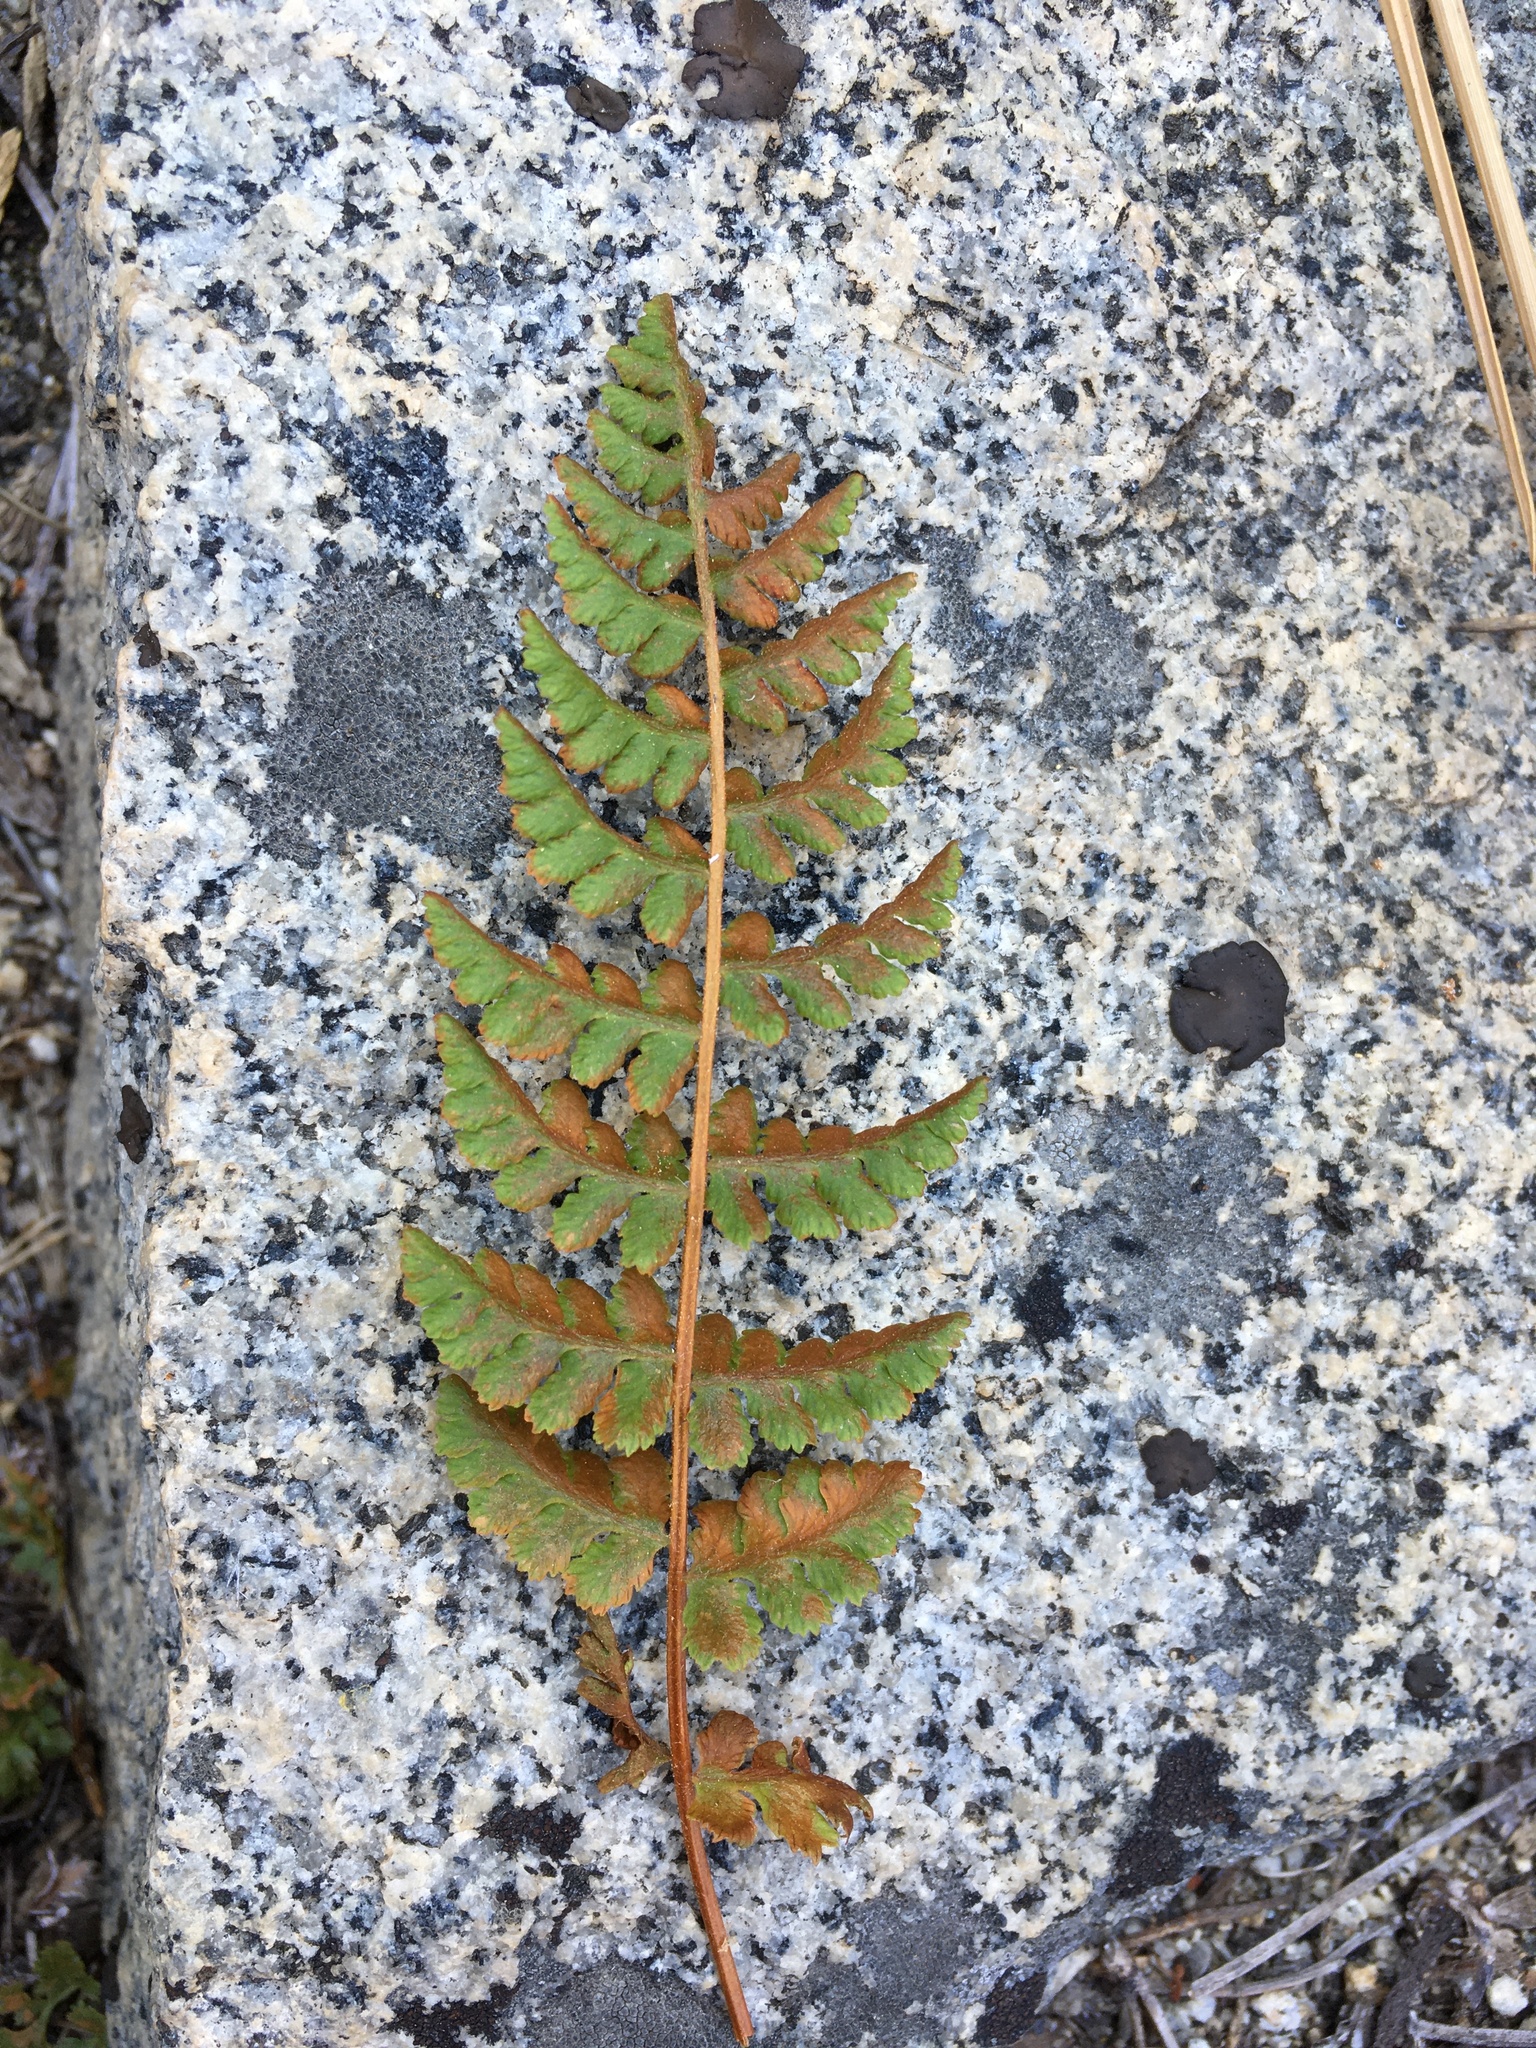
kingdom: Plantae
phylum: Tracheophyta
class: Polypodiopsida
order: Polypodiales
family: Woodsiaceae
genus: Physematium
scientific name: Physematium oreganum
